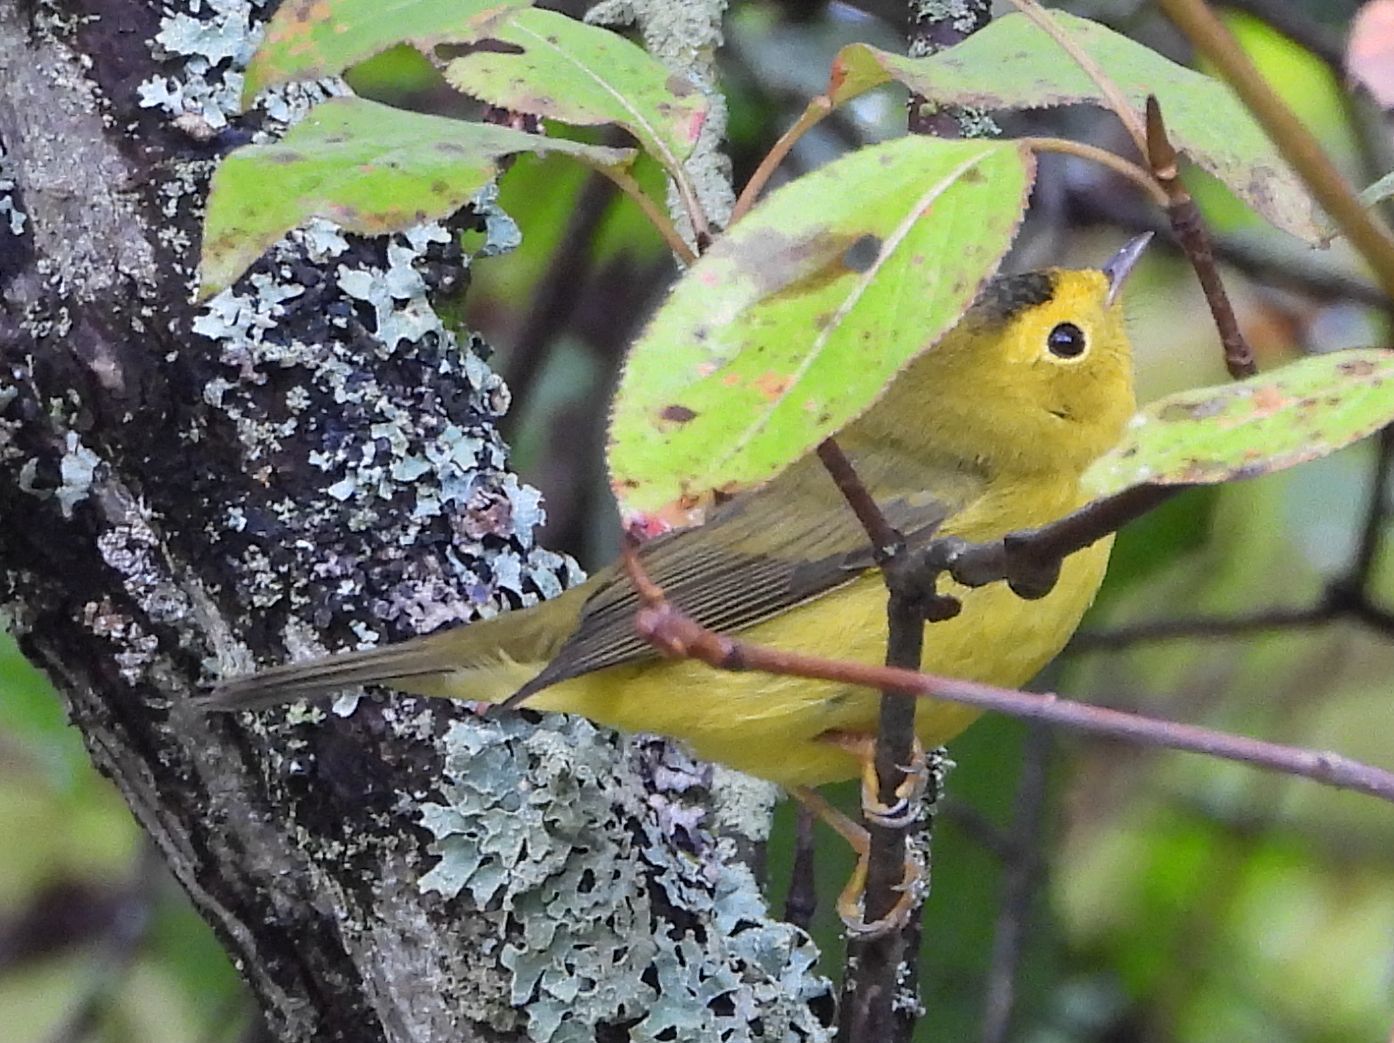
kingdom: Animalia
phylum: Chordata
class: Aves
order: Passeriformes
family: Parulidae
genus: Cardellina
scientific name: Cardellina pusilla
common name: Wilson's warbler
